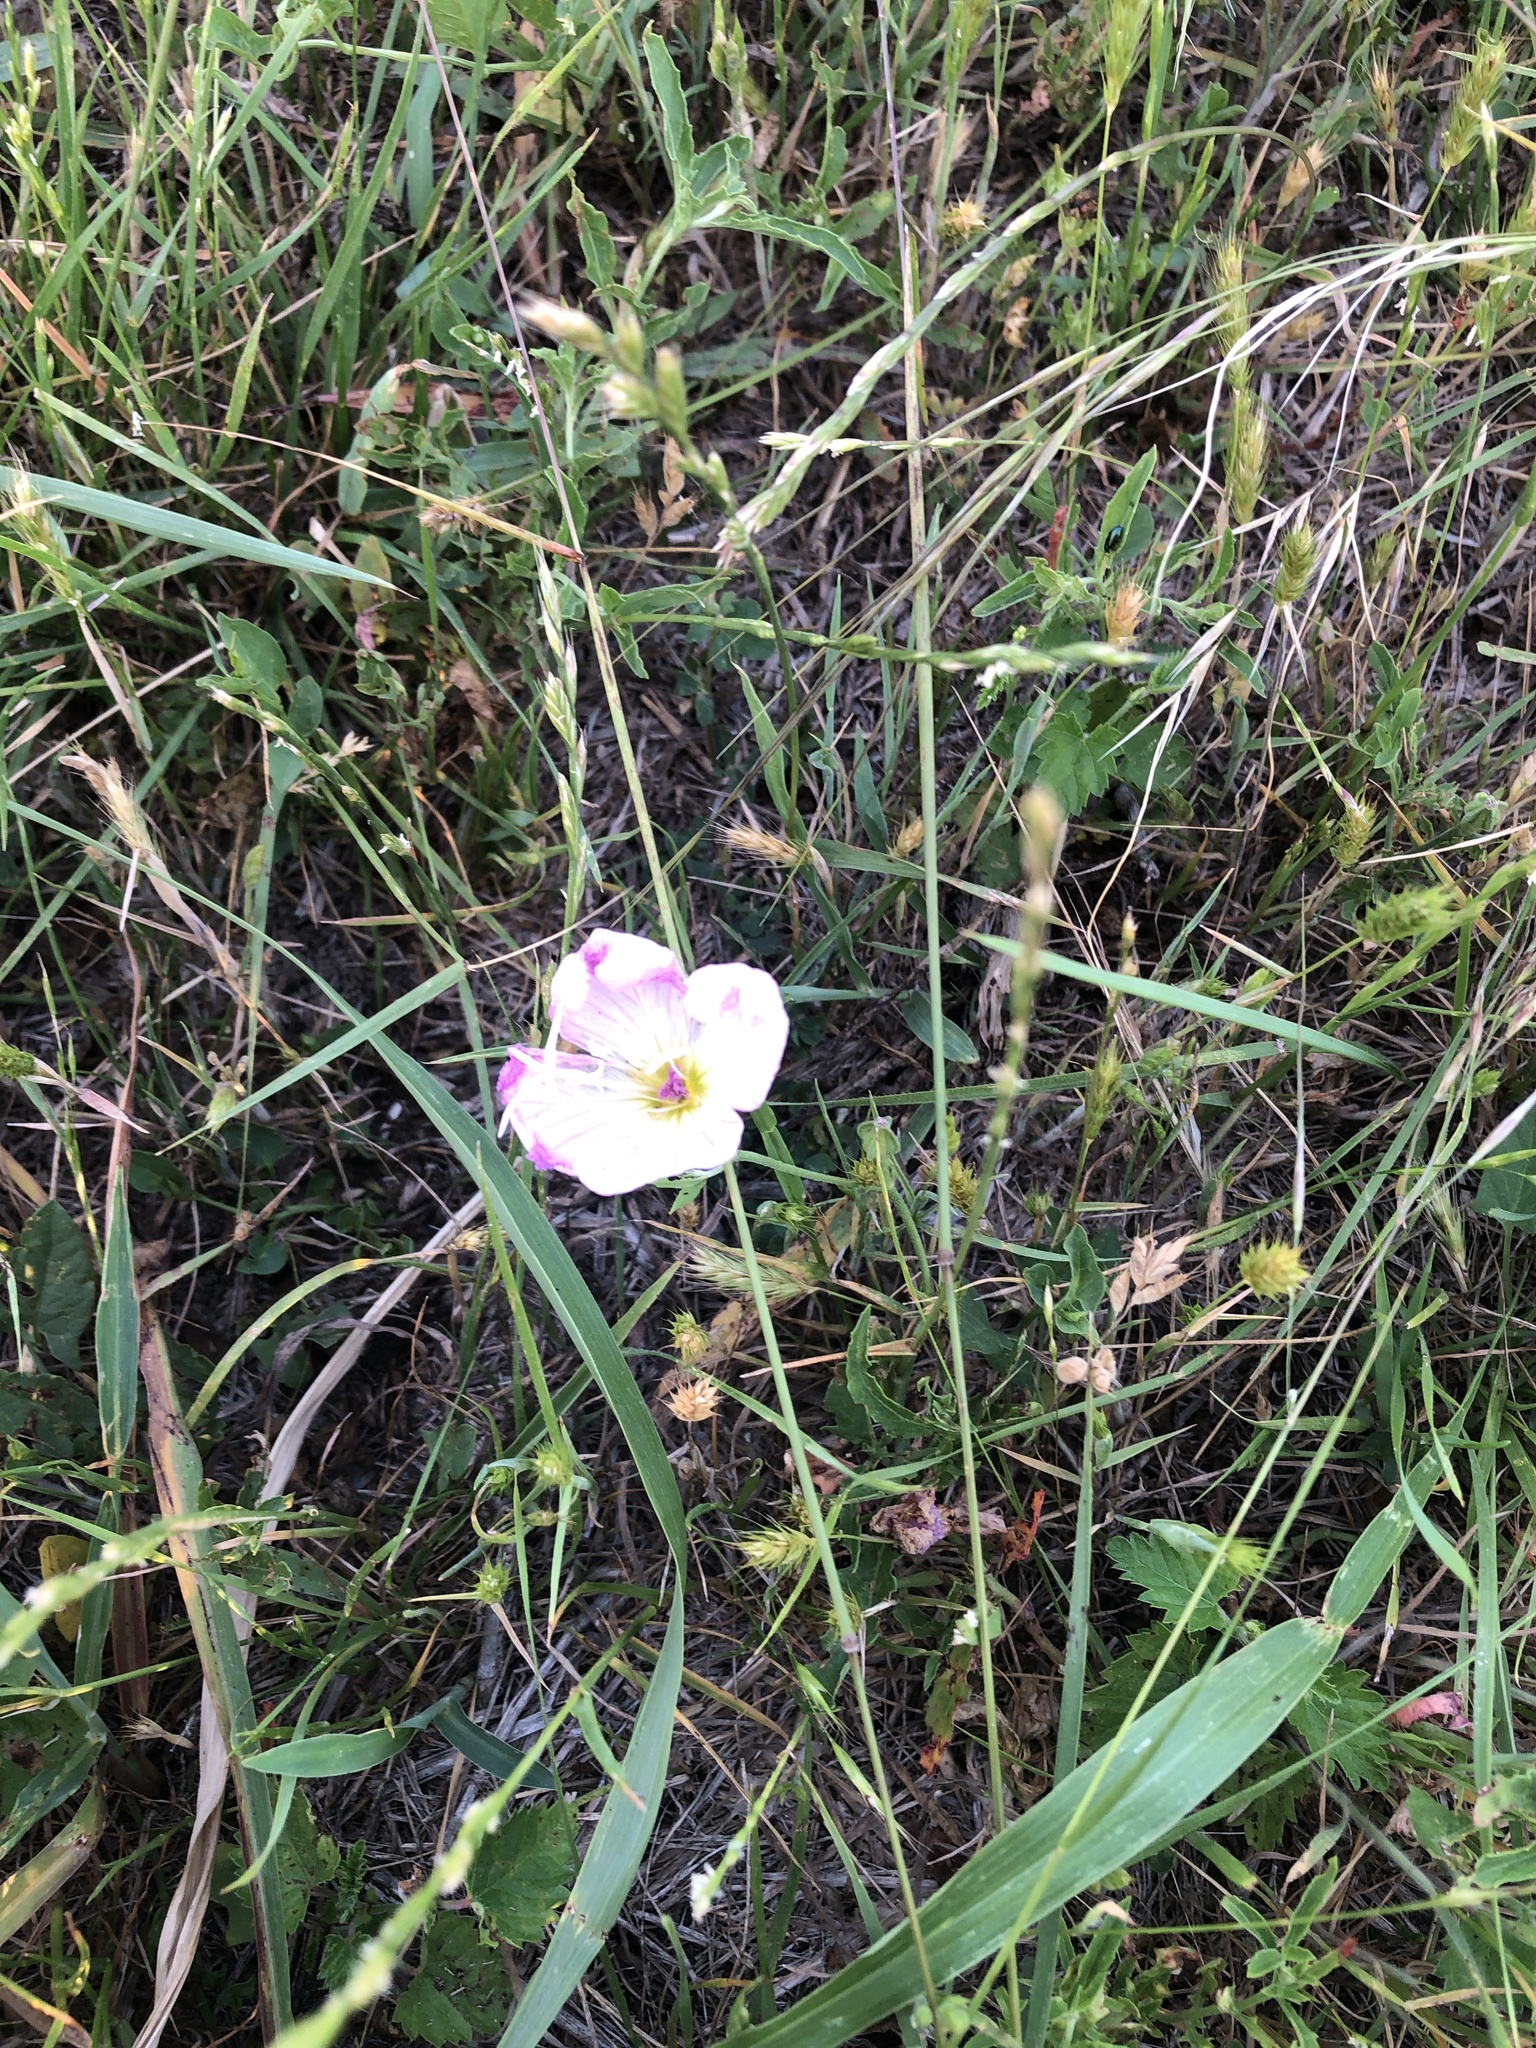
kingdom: Plantae
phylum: Tracheophyta
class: Magnoliopsida
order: Myrtales
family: Onagraceae
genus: Oenothera
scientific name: Oenothera speciosa
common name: White evening-primrose
